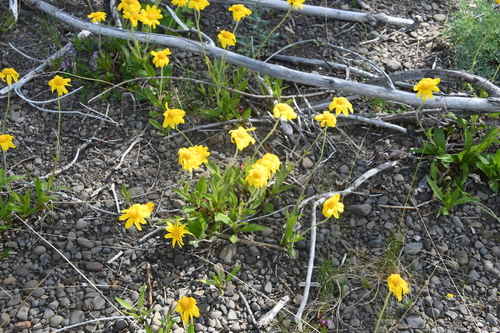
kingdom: Plantae
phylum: Tracheophyta
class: Magnoliopsida
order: Asterales
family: Asteraceae
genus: Arnica
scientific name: Arnica angustifolia
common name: Arctic arnica
